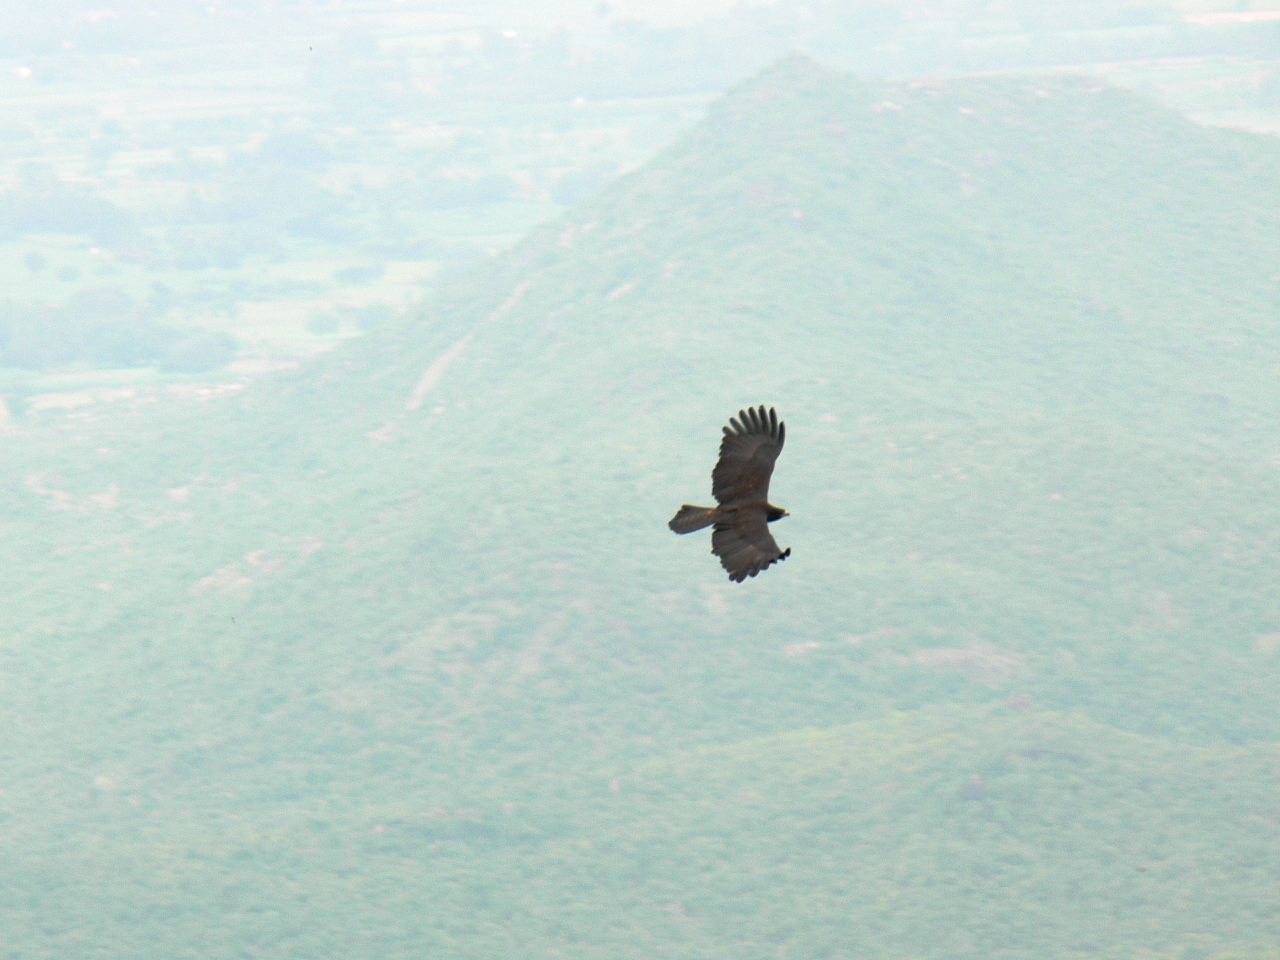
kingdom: Animalia
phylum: Chordata
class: Aves
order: Accipitriformes
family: Accipitridae
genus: Ictinaetus
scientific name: Ictinaetus malayensis
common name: Black eagle
